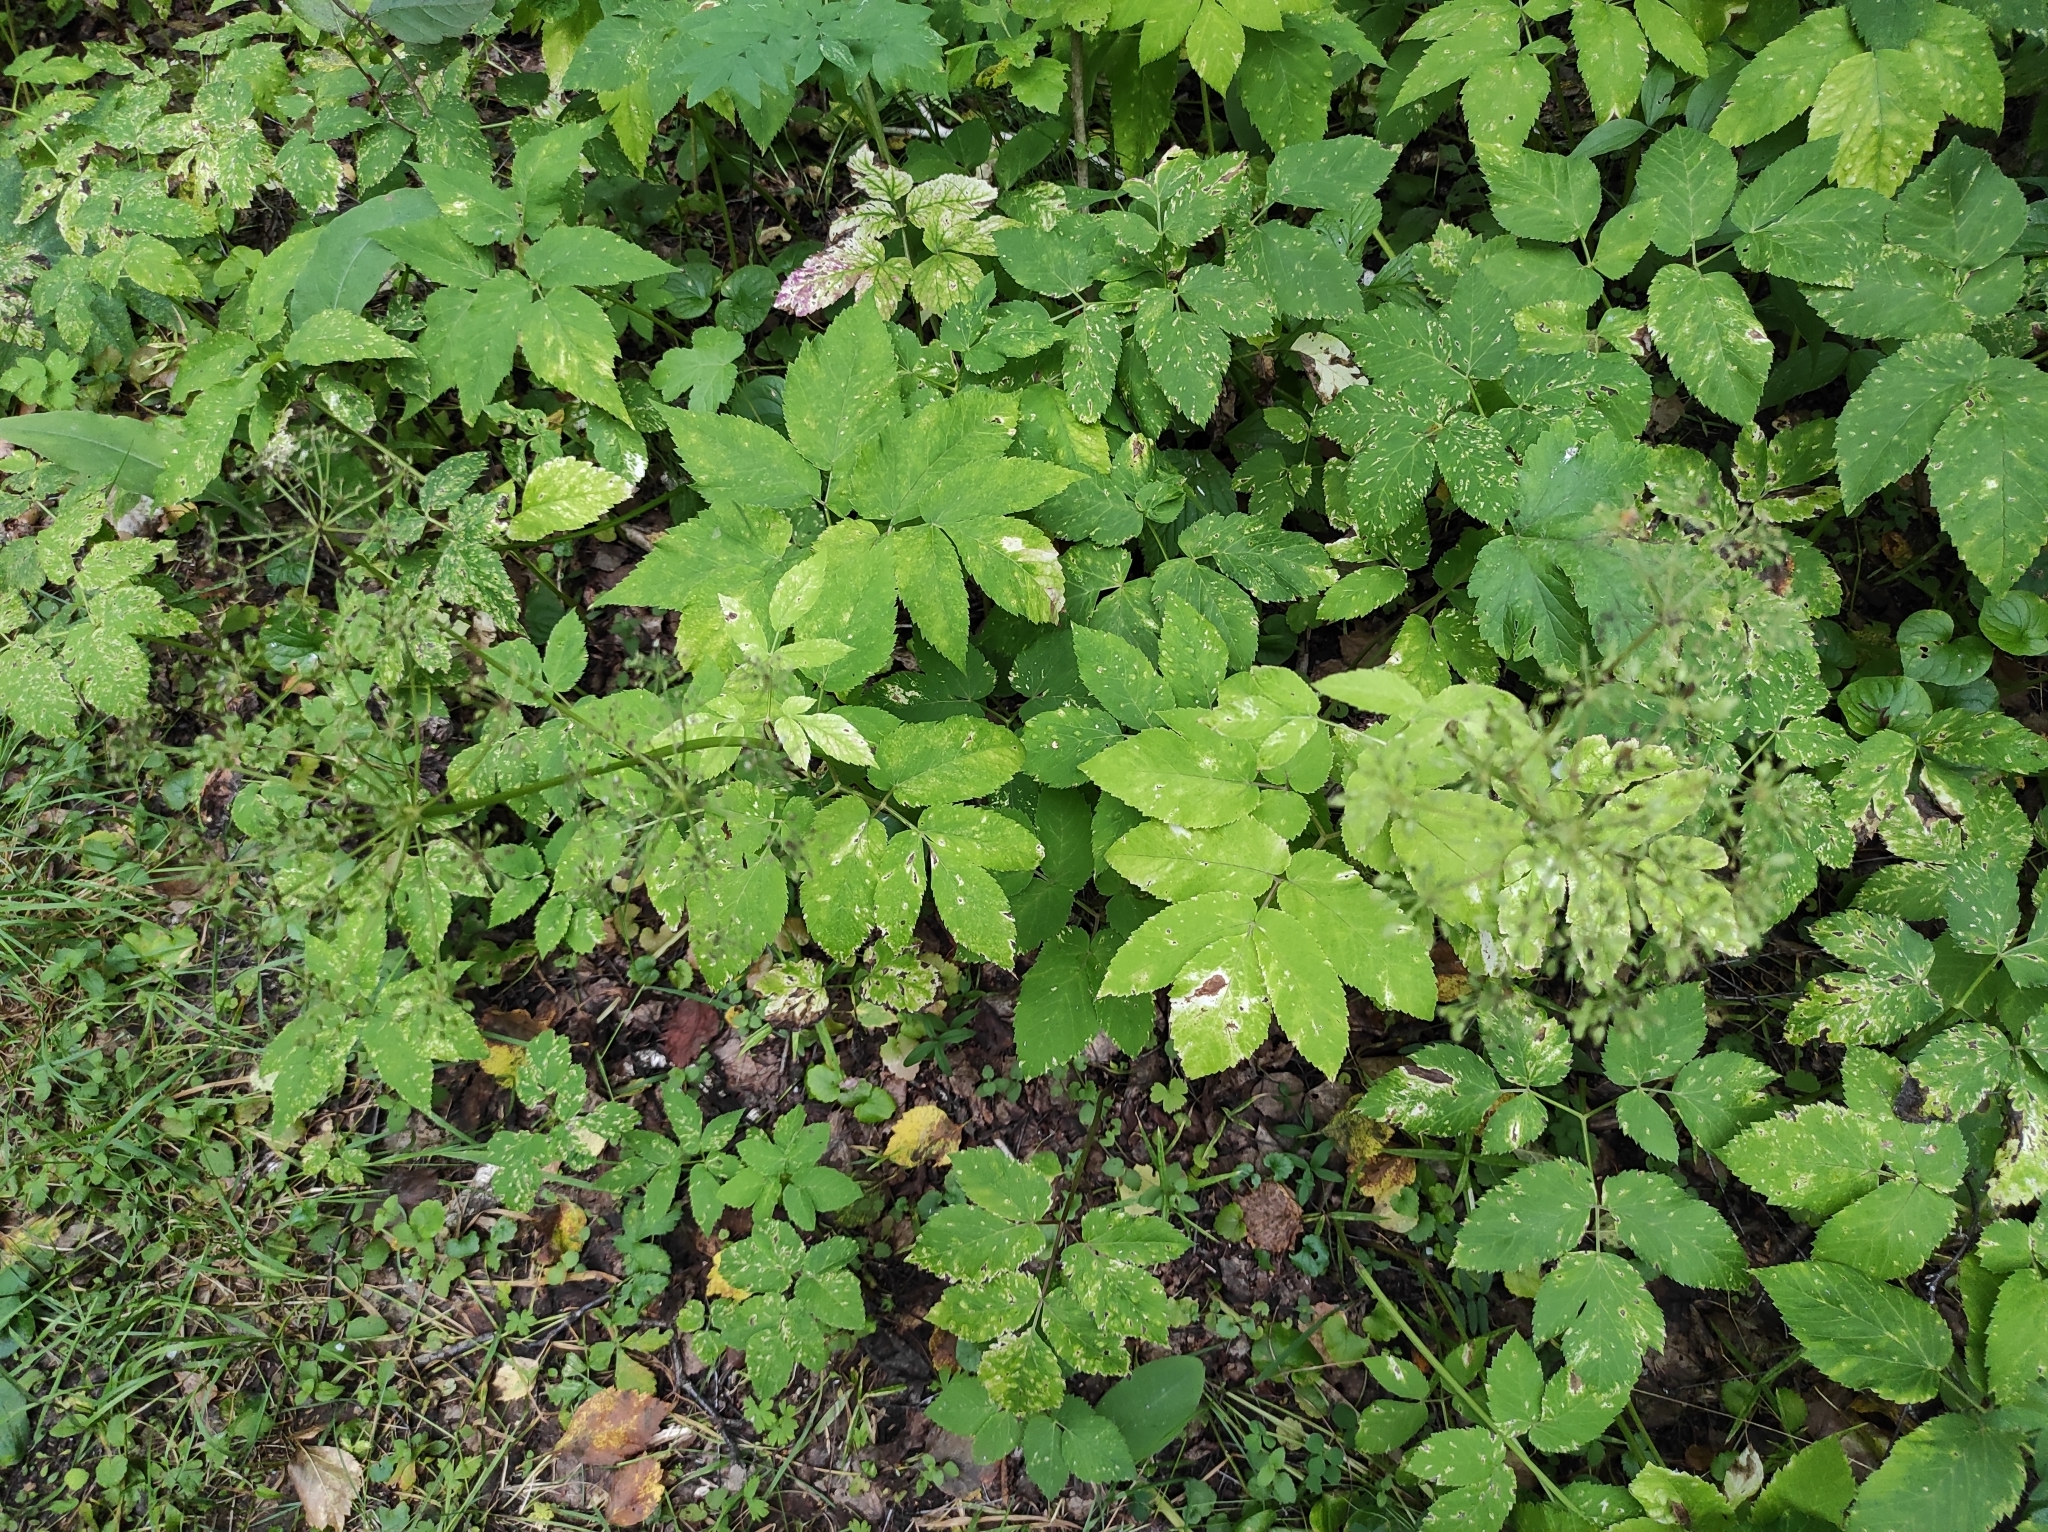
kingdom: Plantae
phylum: Tracheophyta
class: Magnoliopsida
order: Apiales
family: Apiaceae
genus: Aegopodium
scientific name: Aegopodium podagraria
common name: Ground-elder
